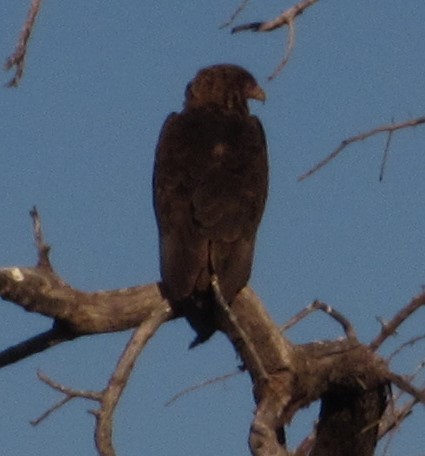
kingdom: Animalia
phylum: Chordata
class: Aves
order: Accipitriformes
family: Accipitridae
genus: Terathopius
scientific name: Terathopius ecaudatus
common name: Bateleur
